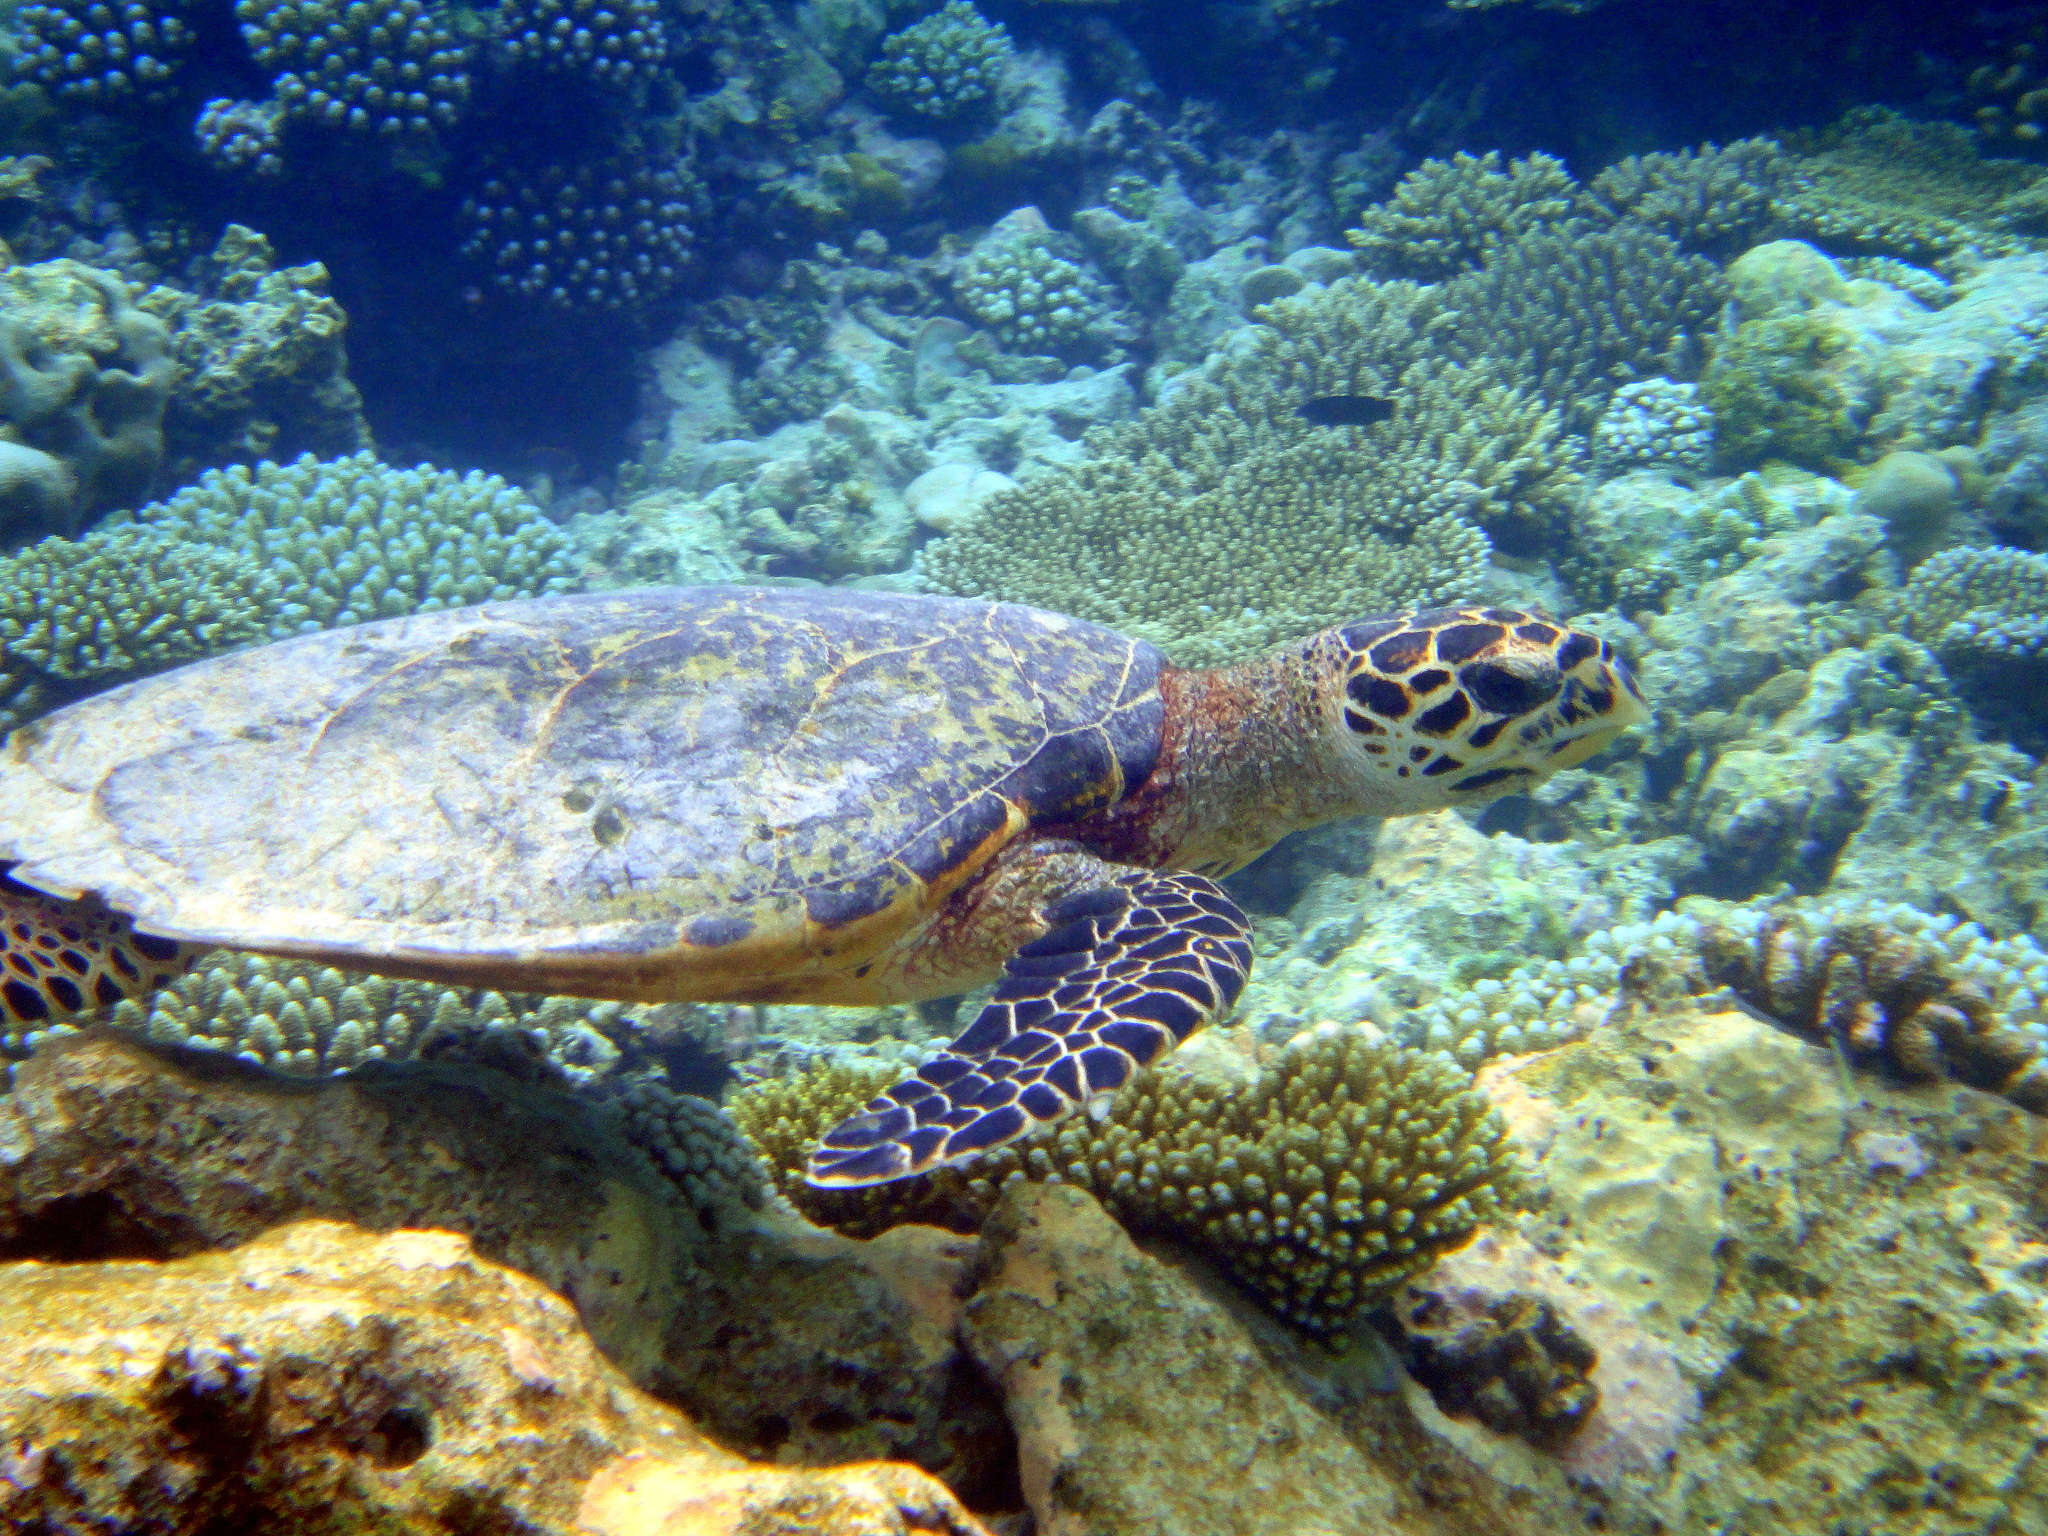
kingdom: Animalia
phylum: Chordata
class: Testudines
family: Cheloniidae
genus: Eretmochelys
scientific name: Eretmochelys imbricata
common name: Hawksbill turtle
